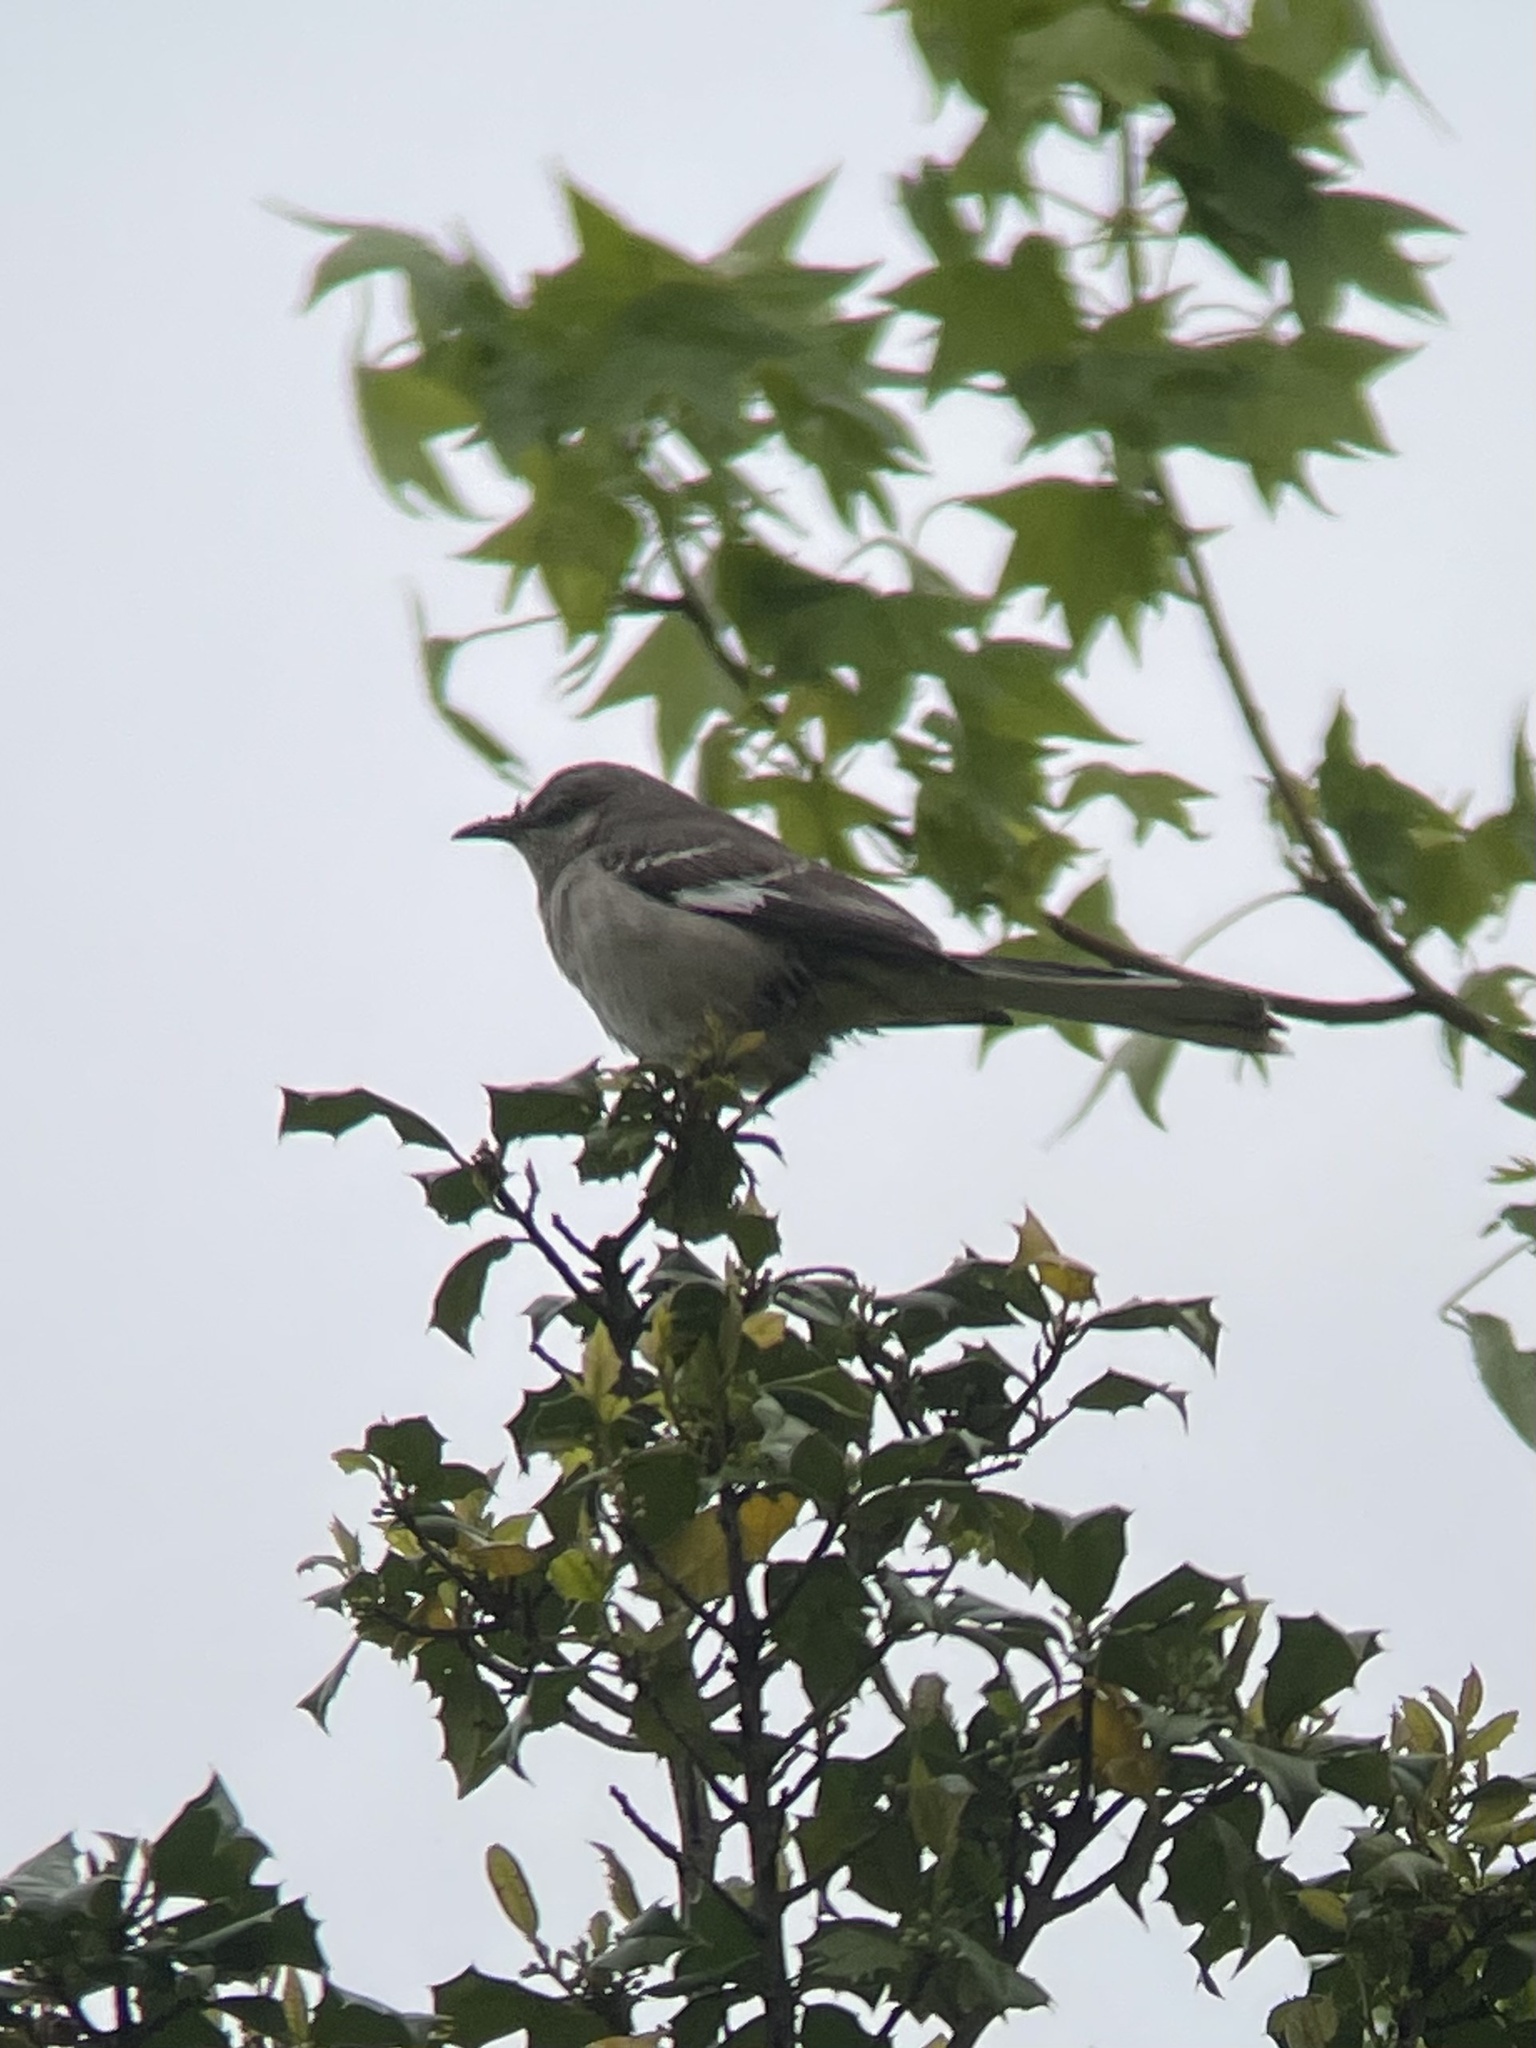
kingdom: Animalia
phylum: Chordata
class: Aves
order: Passeriformes
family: Mimidae
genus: Mimus
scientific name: Mimus polyglottos
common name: Northern mockingbird
